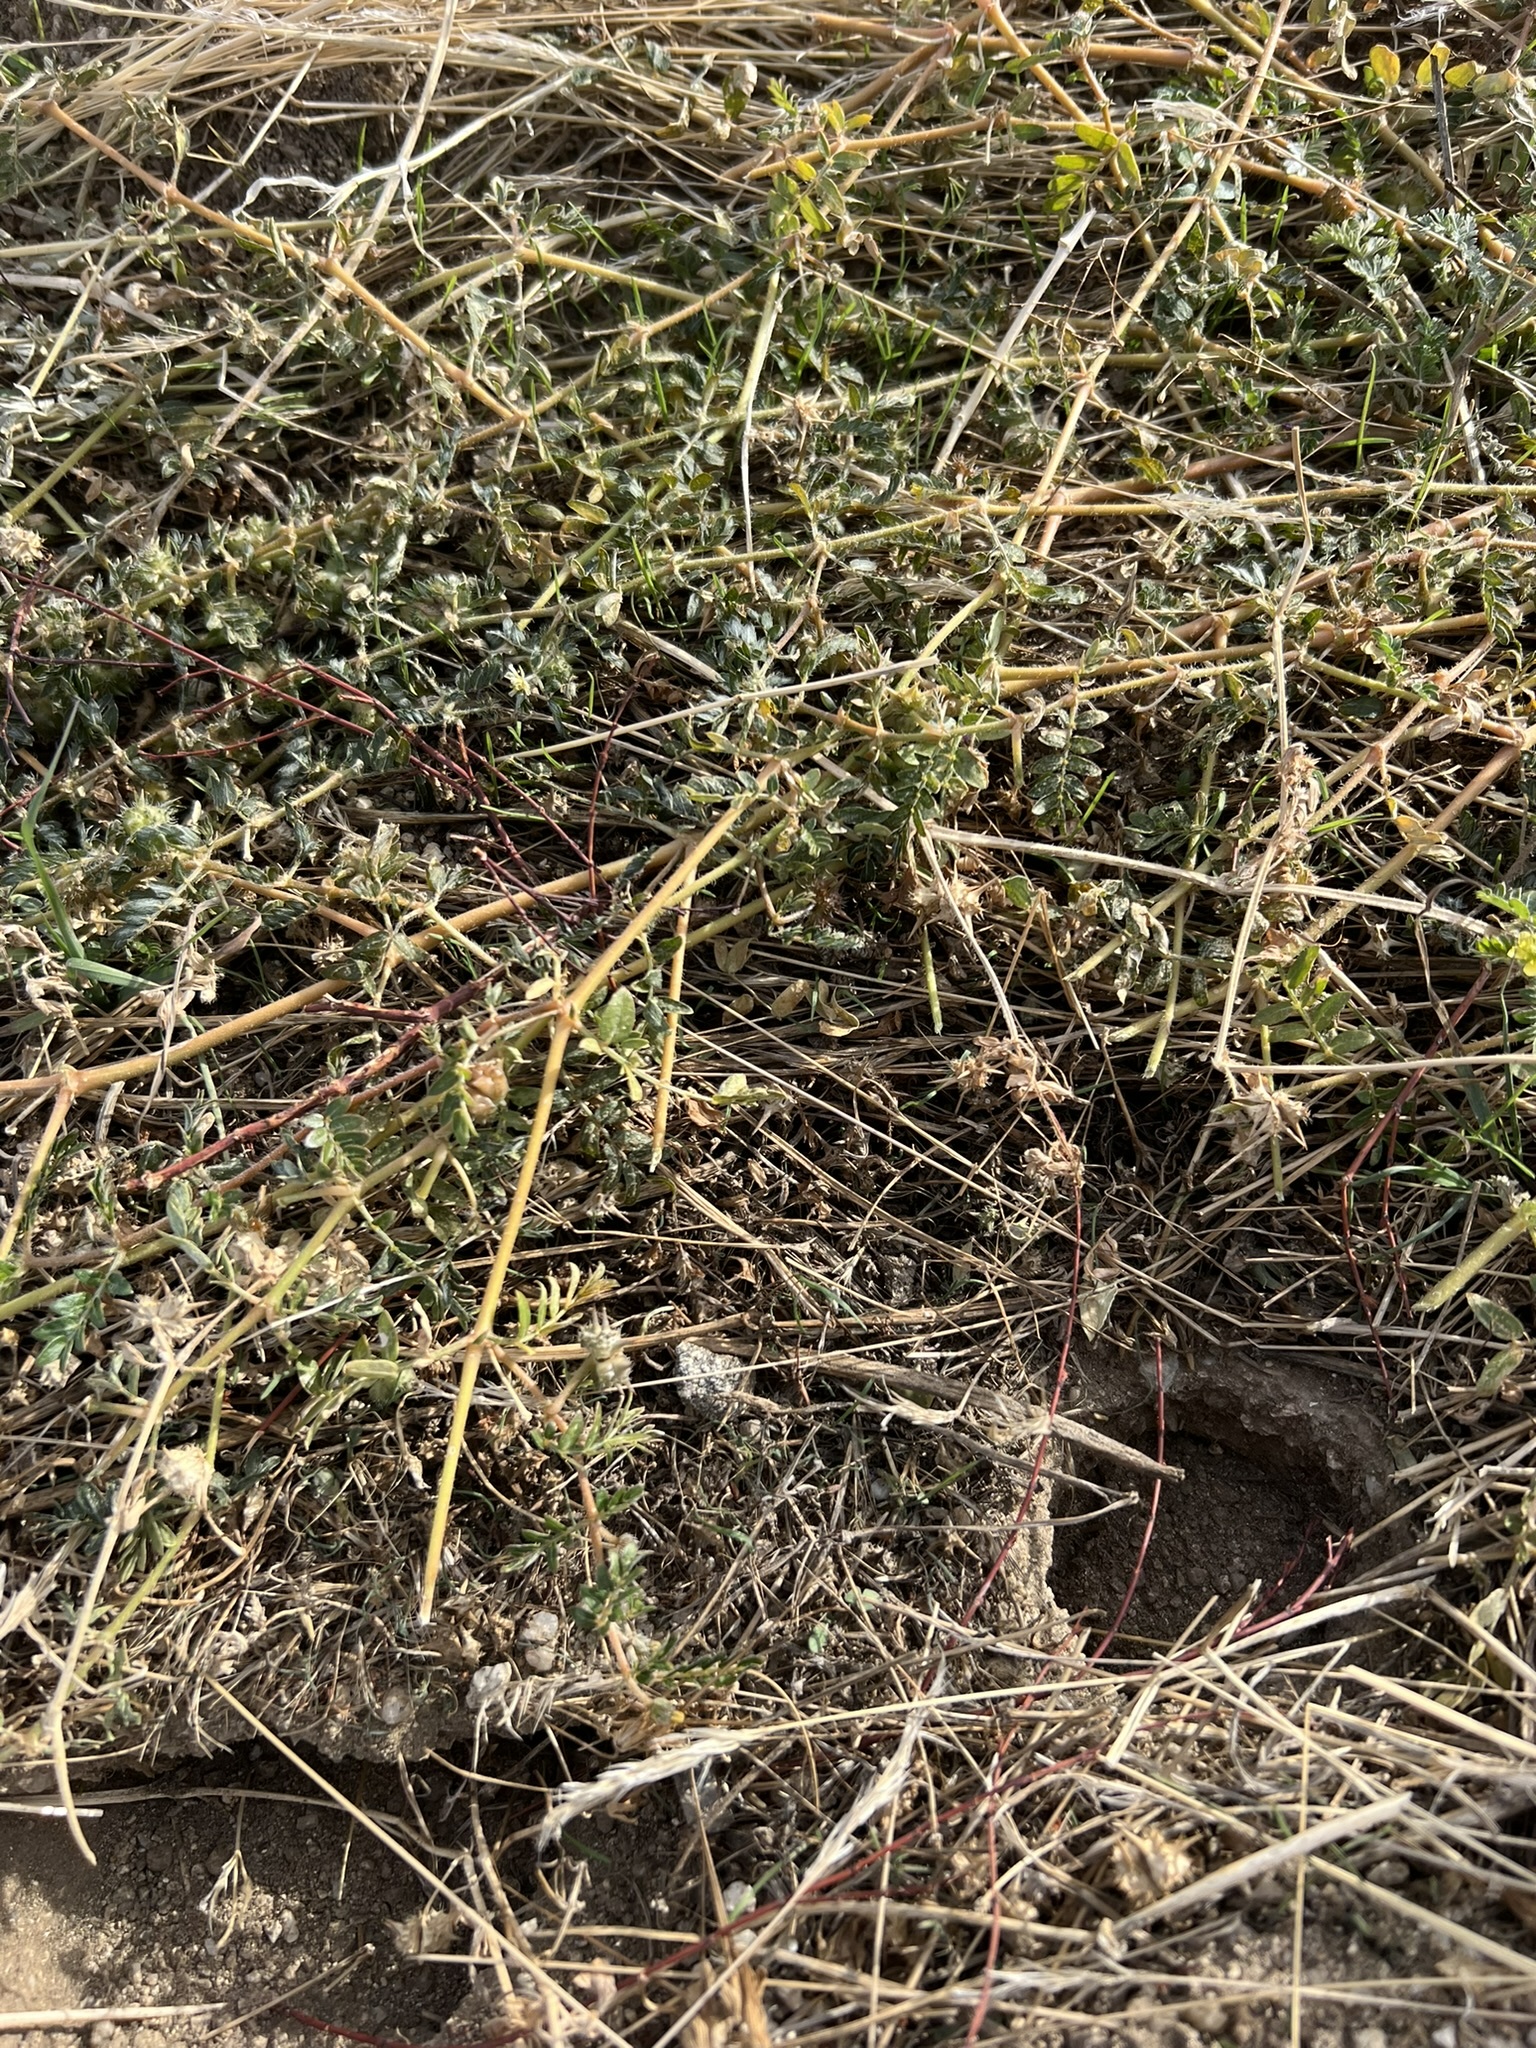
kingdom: Plantae
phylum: Tracheophyta
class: Magnoliopsida
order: Zygophyllales
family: Zygophyllaceae
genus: Tribulus
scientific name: Tribulus terrestris
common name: Puncturevine
